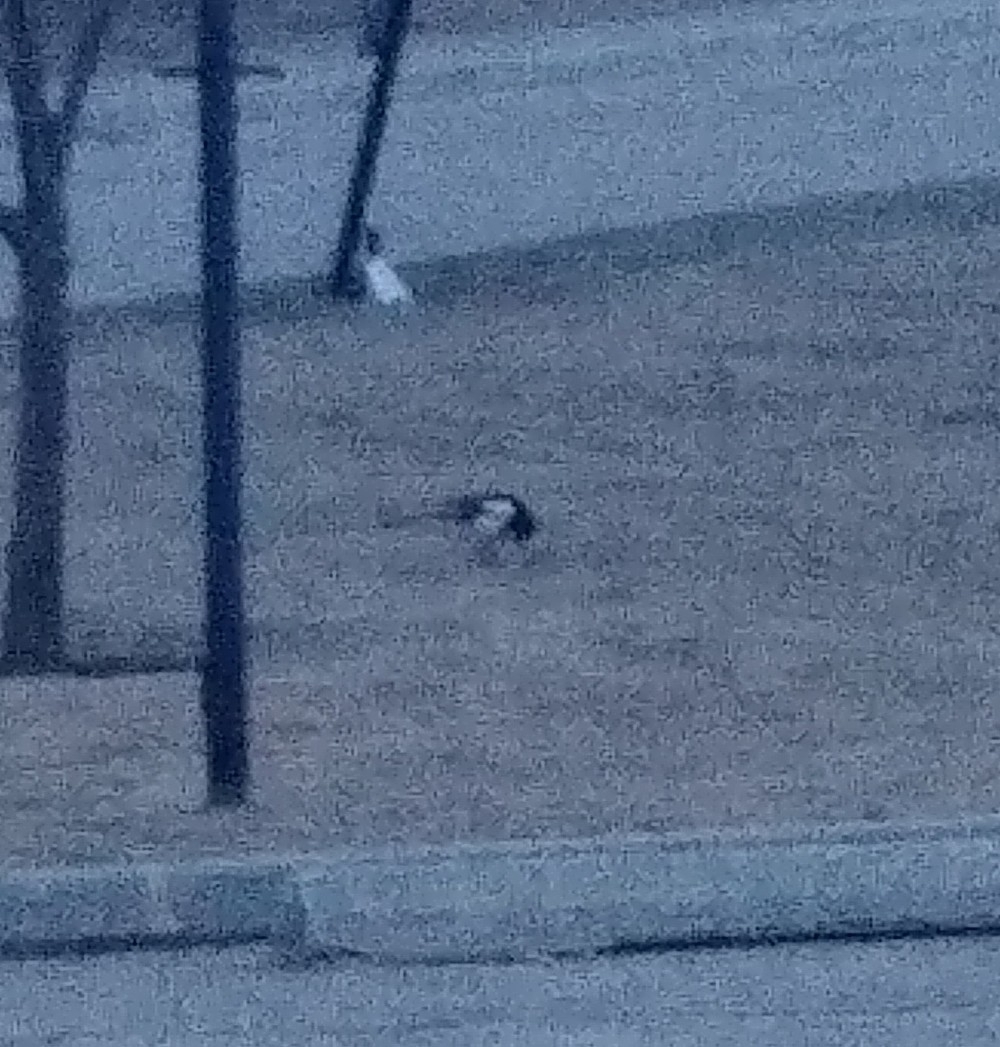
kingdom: Animalia
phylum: Chordata
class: Aves
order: Passeriformes
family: Corvidae
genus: Pica
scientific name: Pica hudsonia
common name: Black-billed magpie
